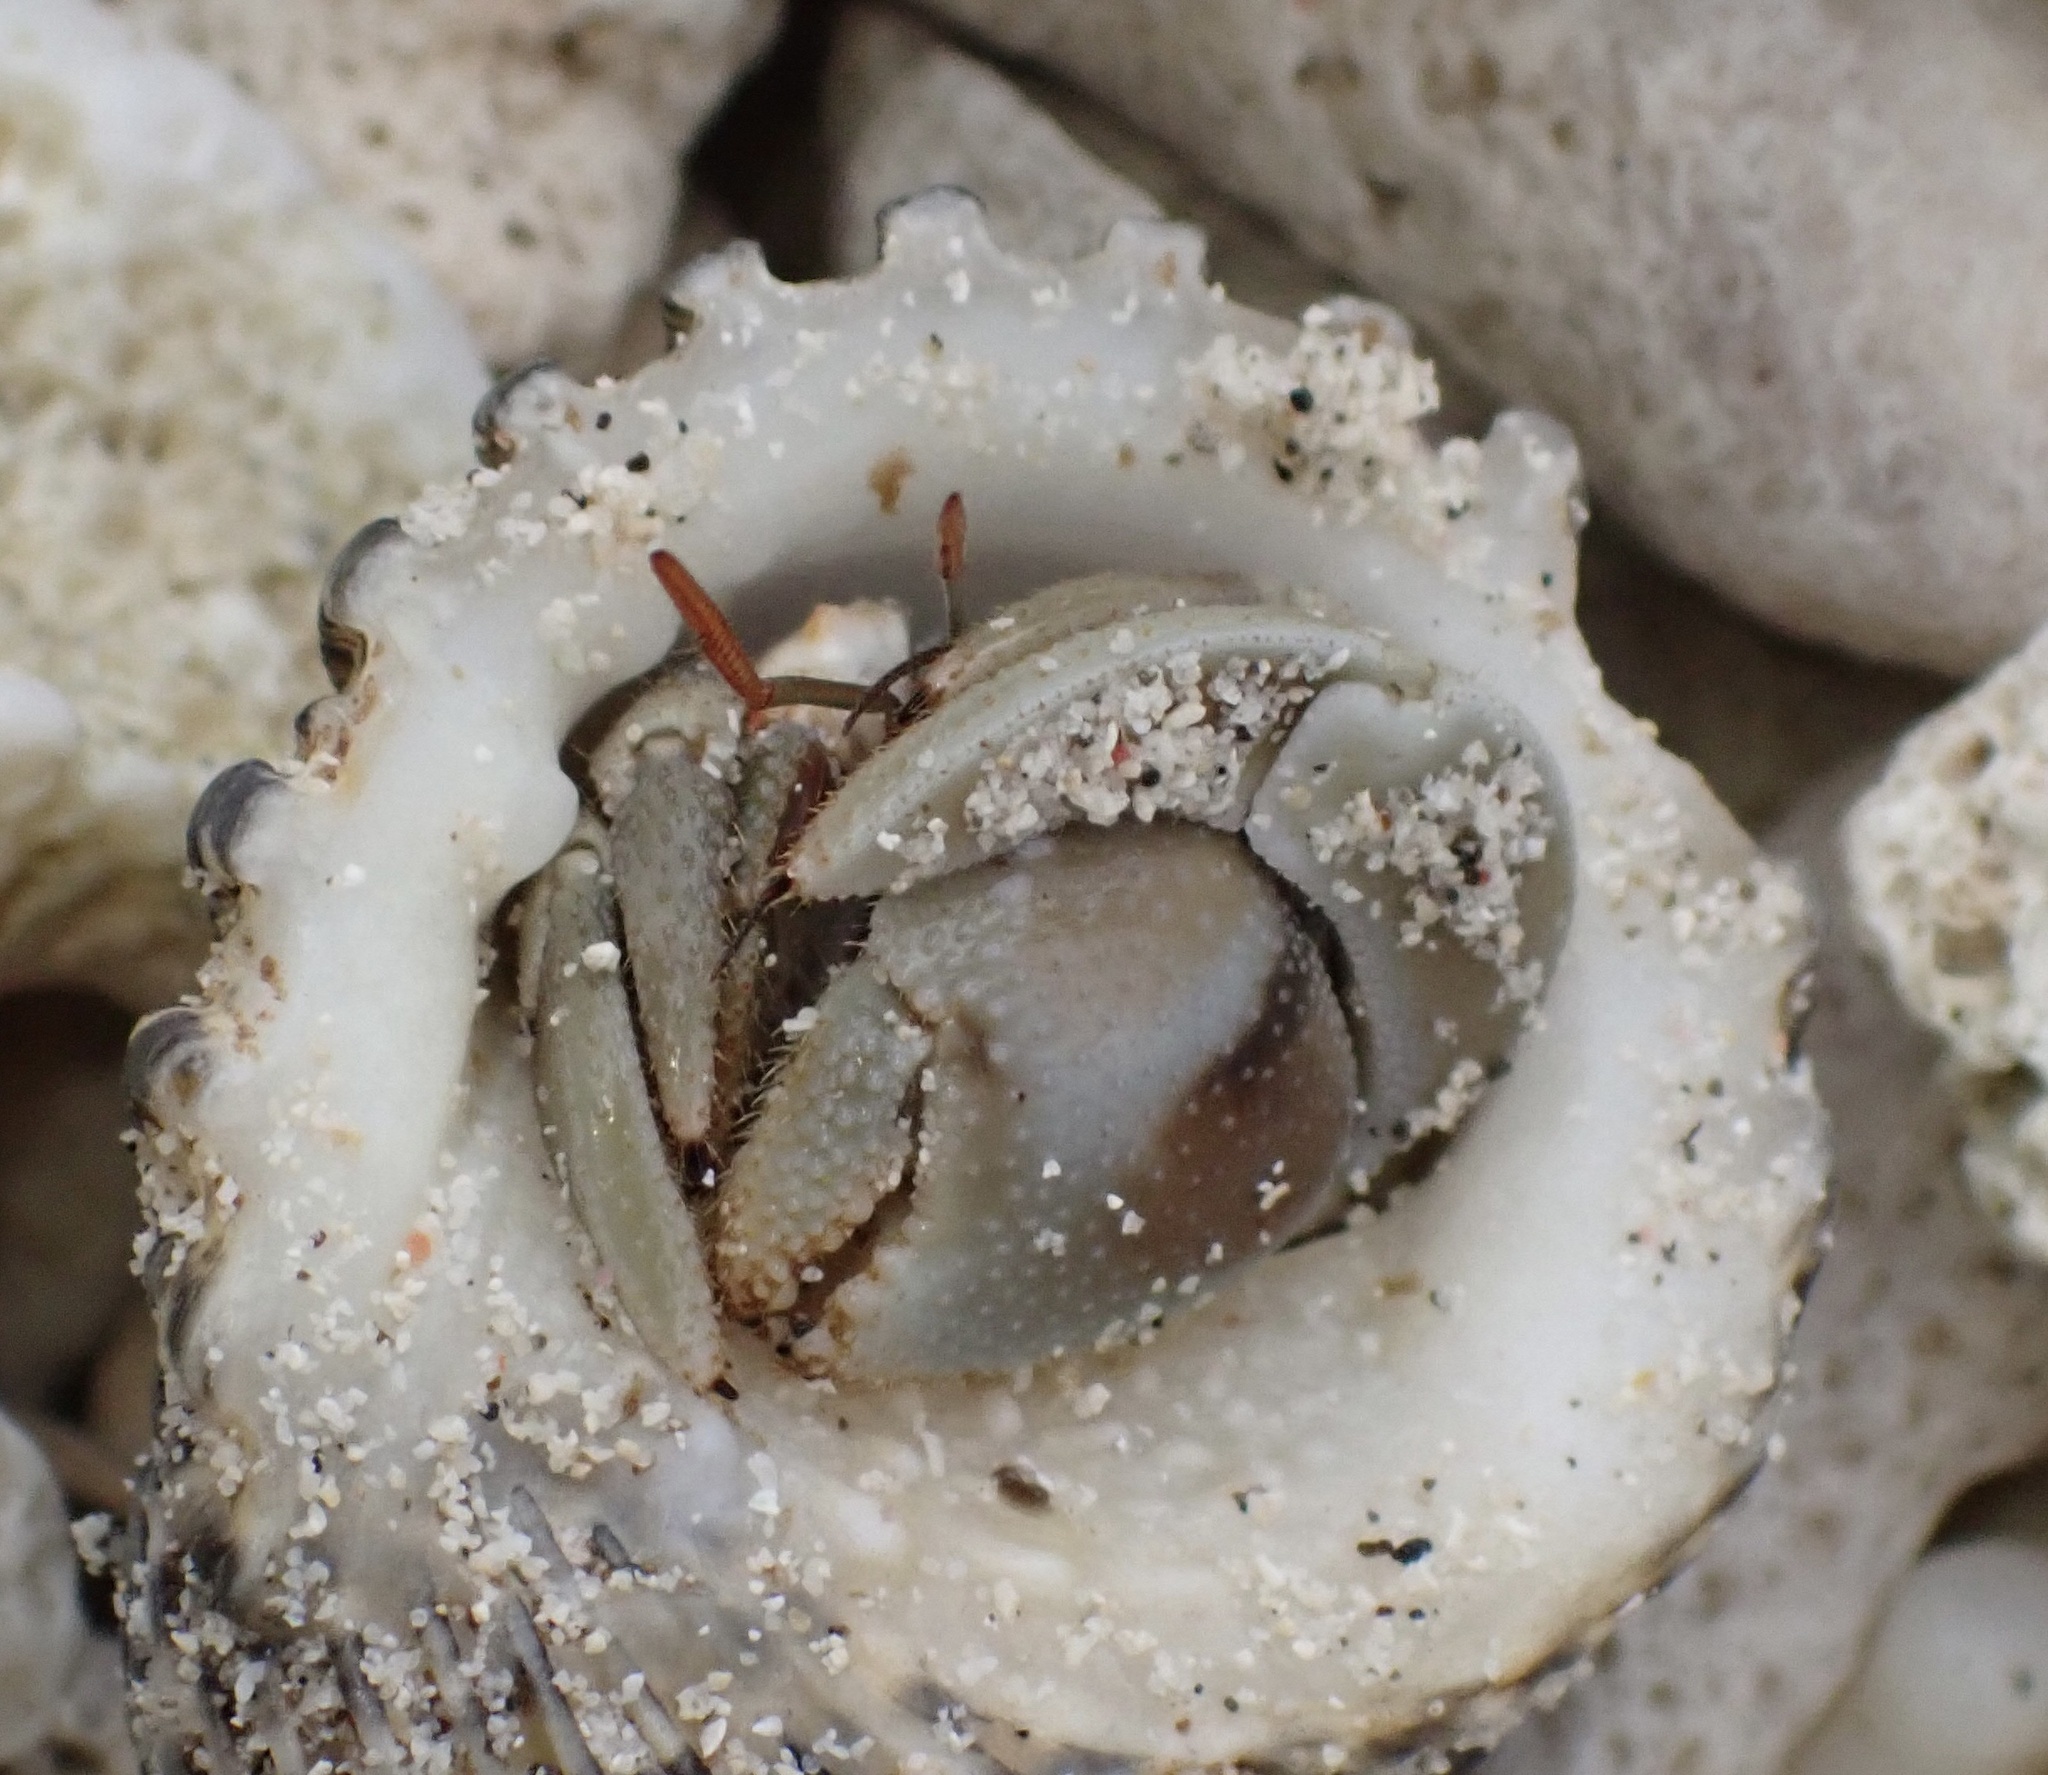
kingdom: Animalia
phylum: Arthropoda
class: Malacostraca
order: Decapoda
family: Coenobitidae
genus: Coenobita
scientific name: Coenobita rugosus
